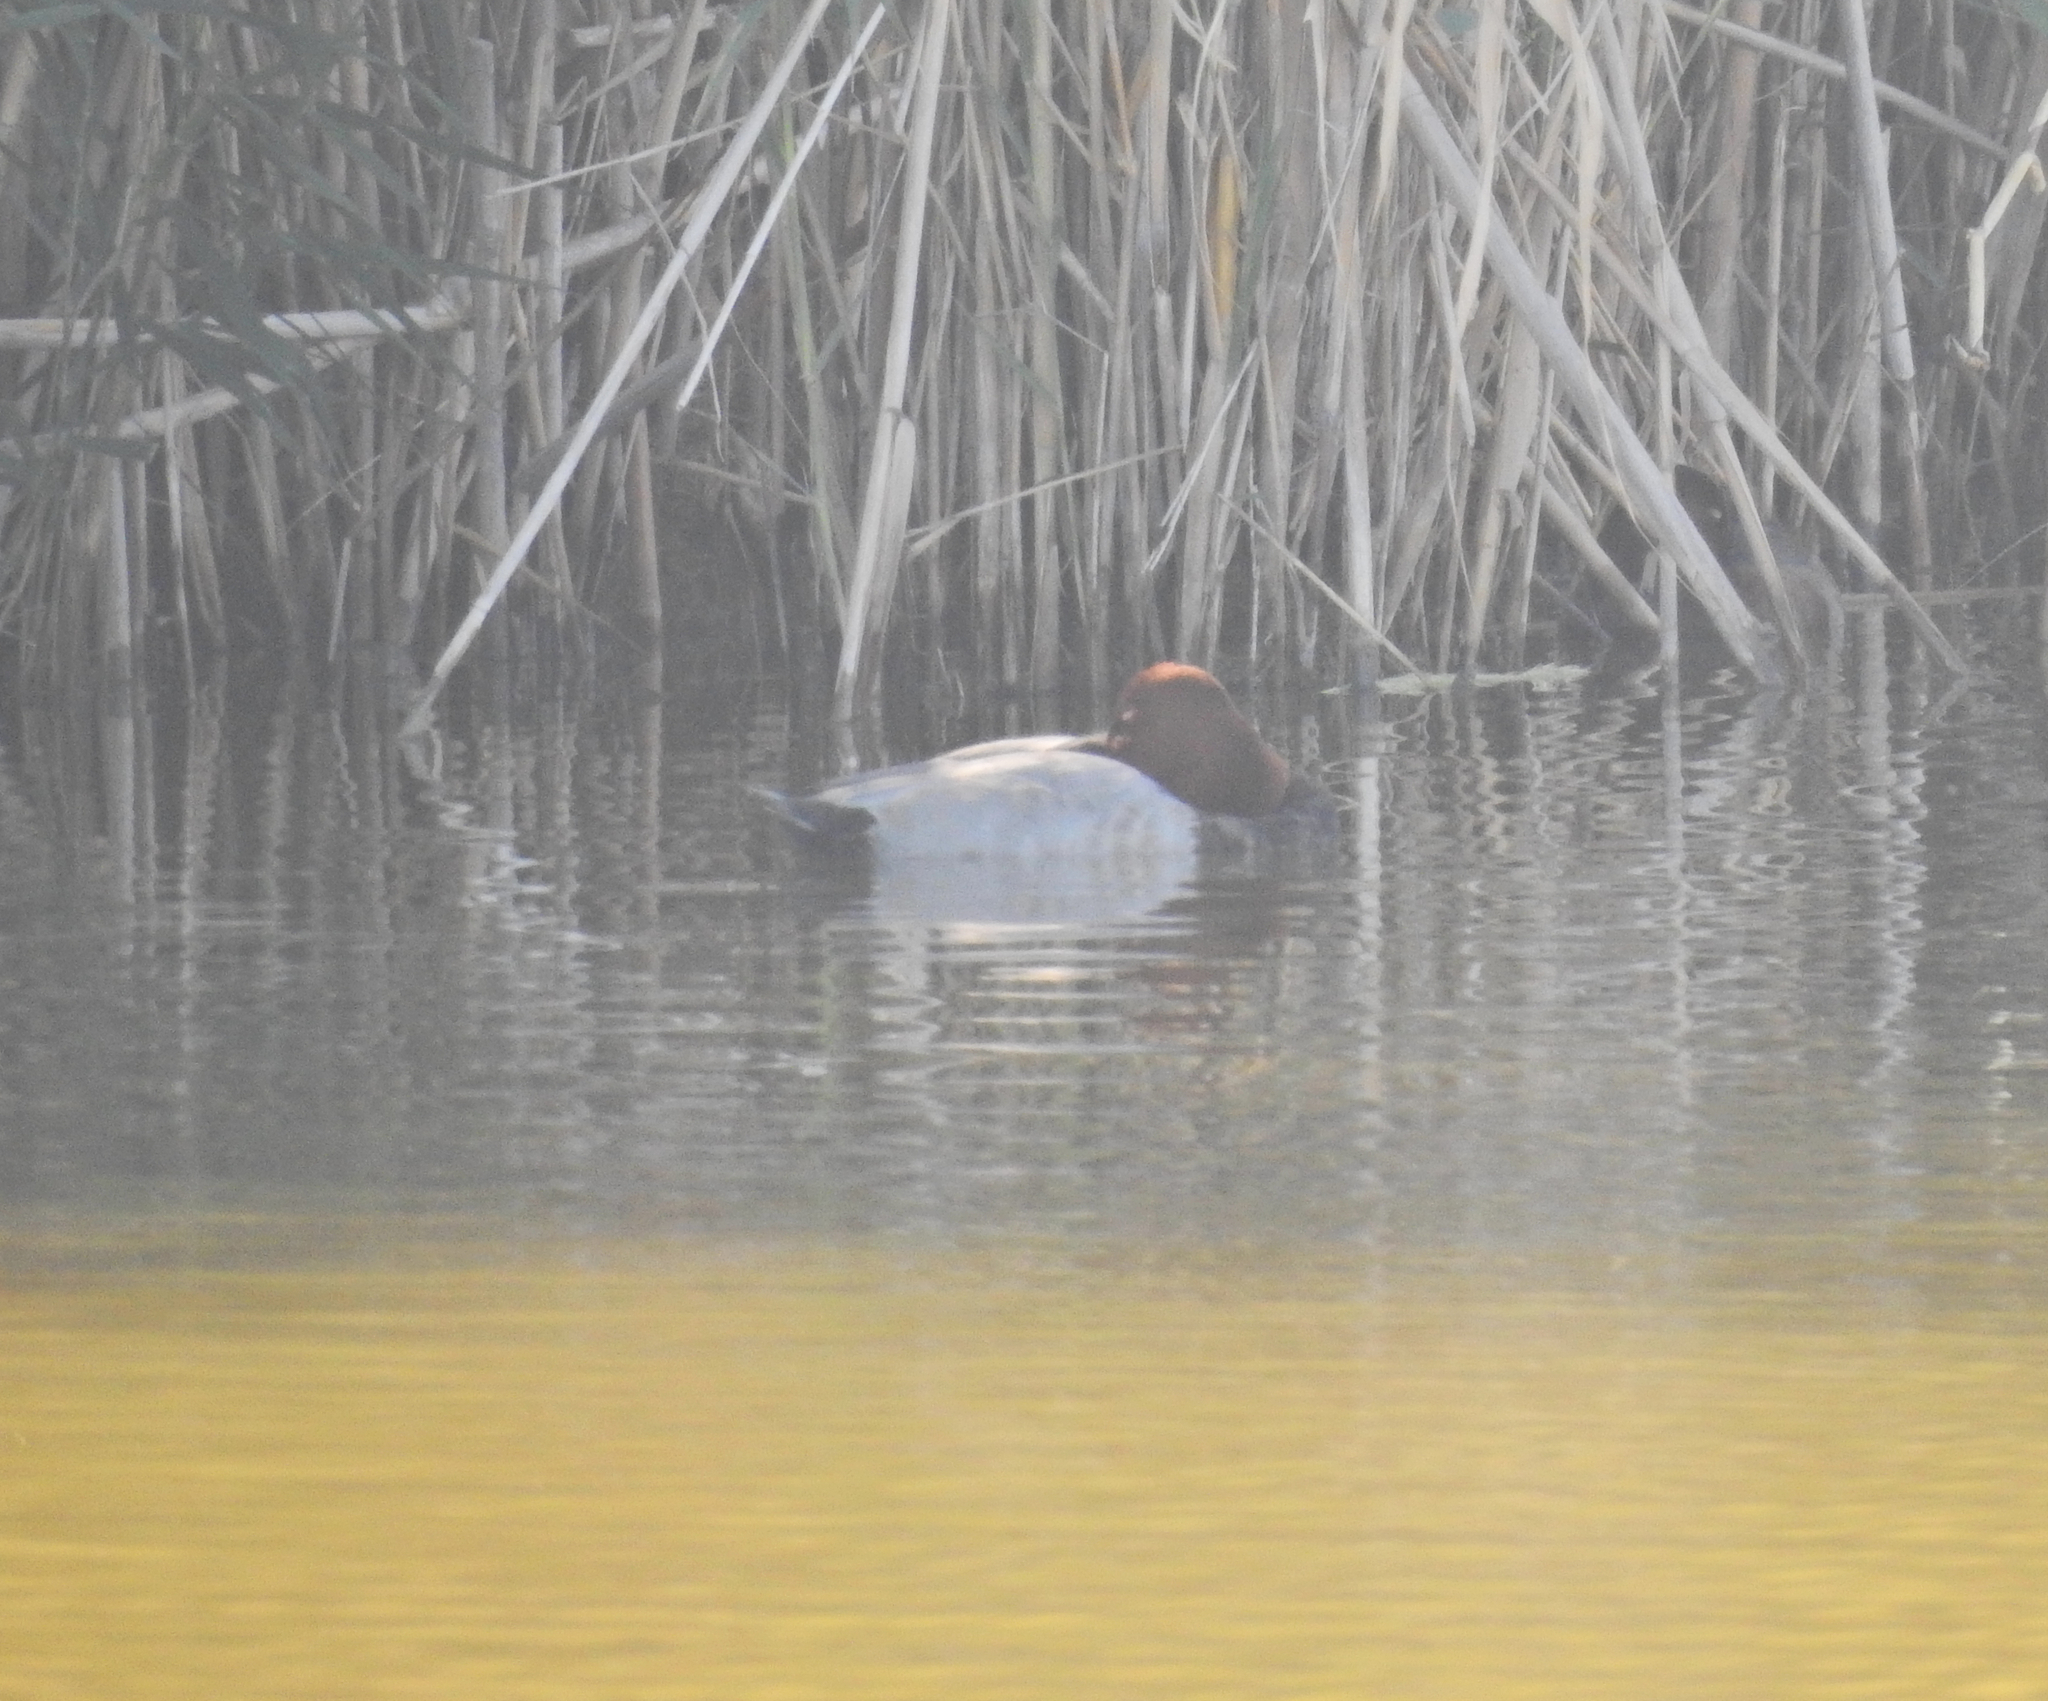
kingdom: Animalia
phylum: Chordata
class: Aves
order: Anseriformes
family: Anatidae
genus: Aythya
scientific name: Aythya ferina
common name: Common pochard
